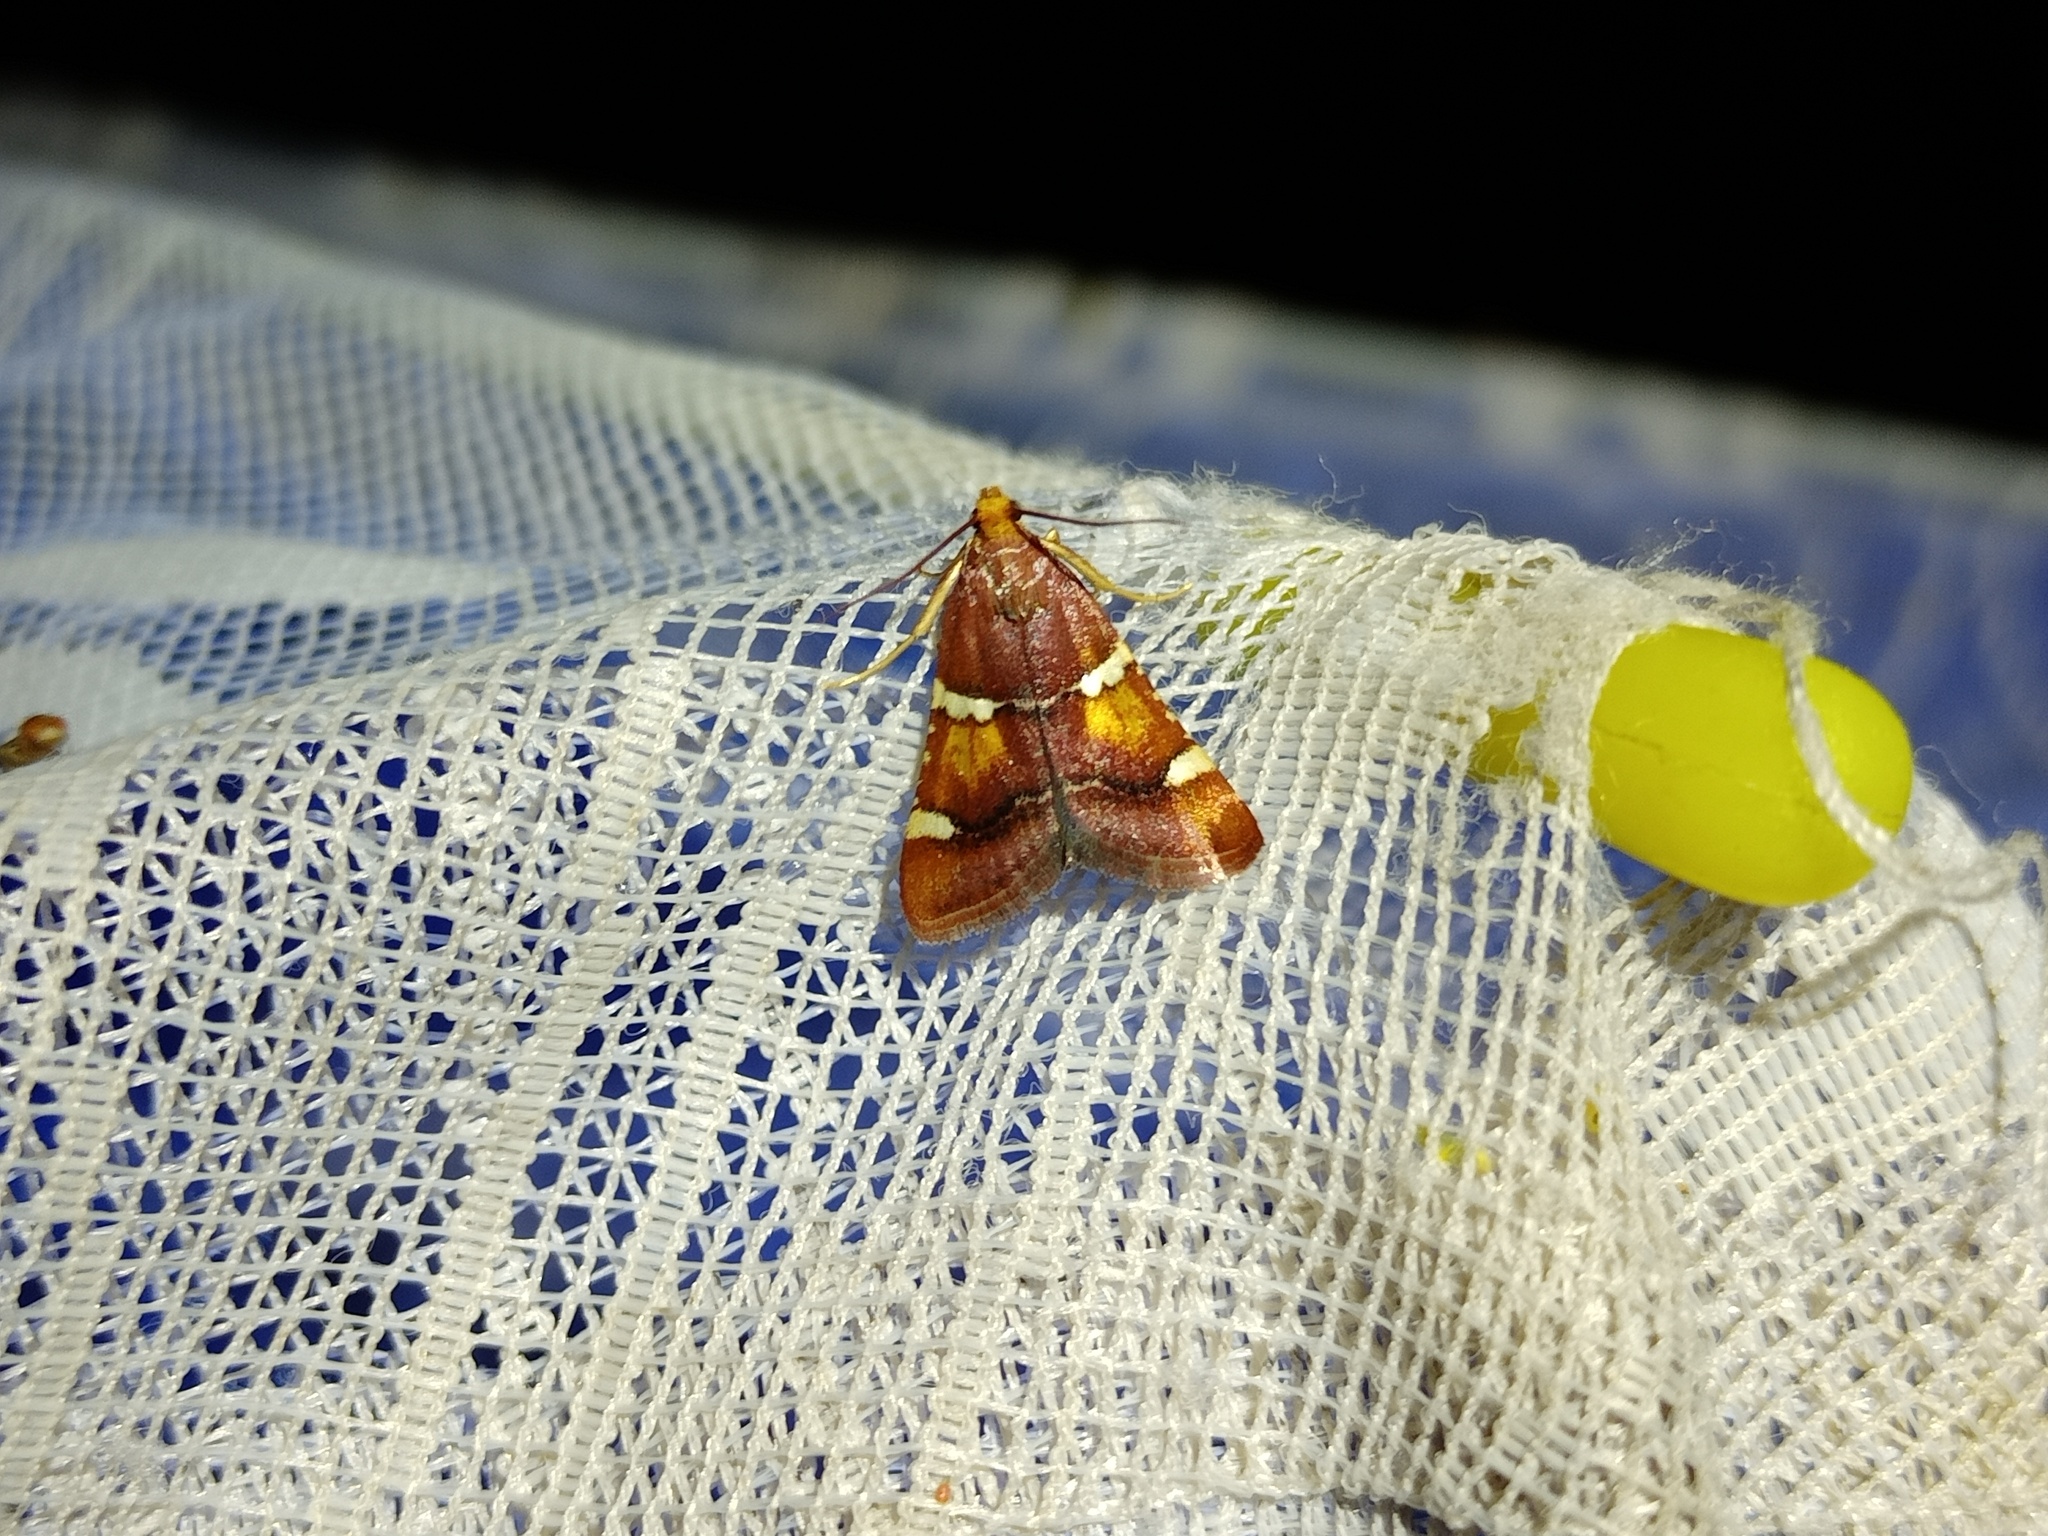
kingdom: Animalia
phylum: Arthropoda
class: Insecta
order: Lepidoptera
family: Pyralidae
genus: Pyralis
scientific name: Pyralis regalis
